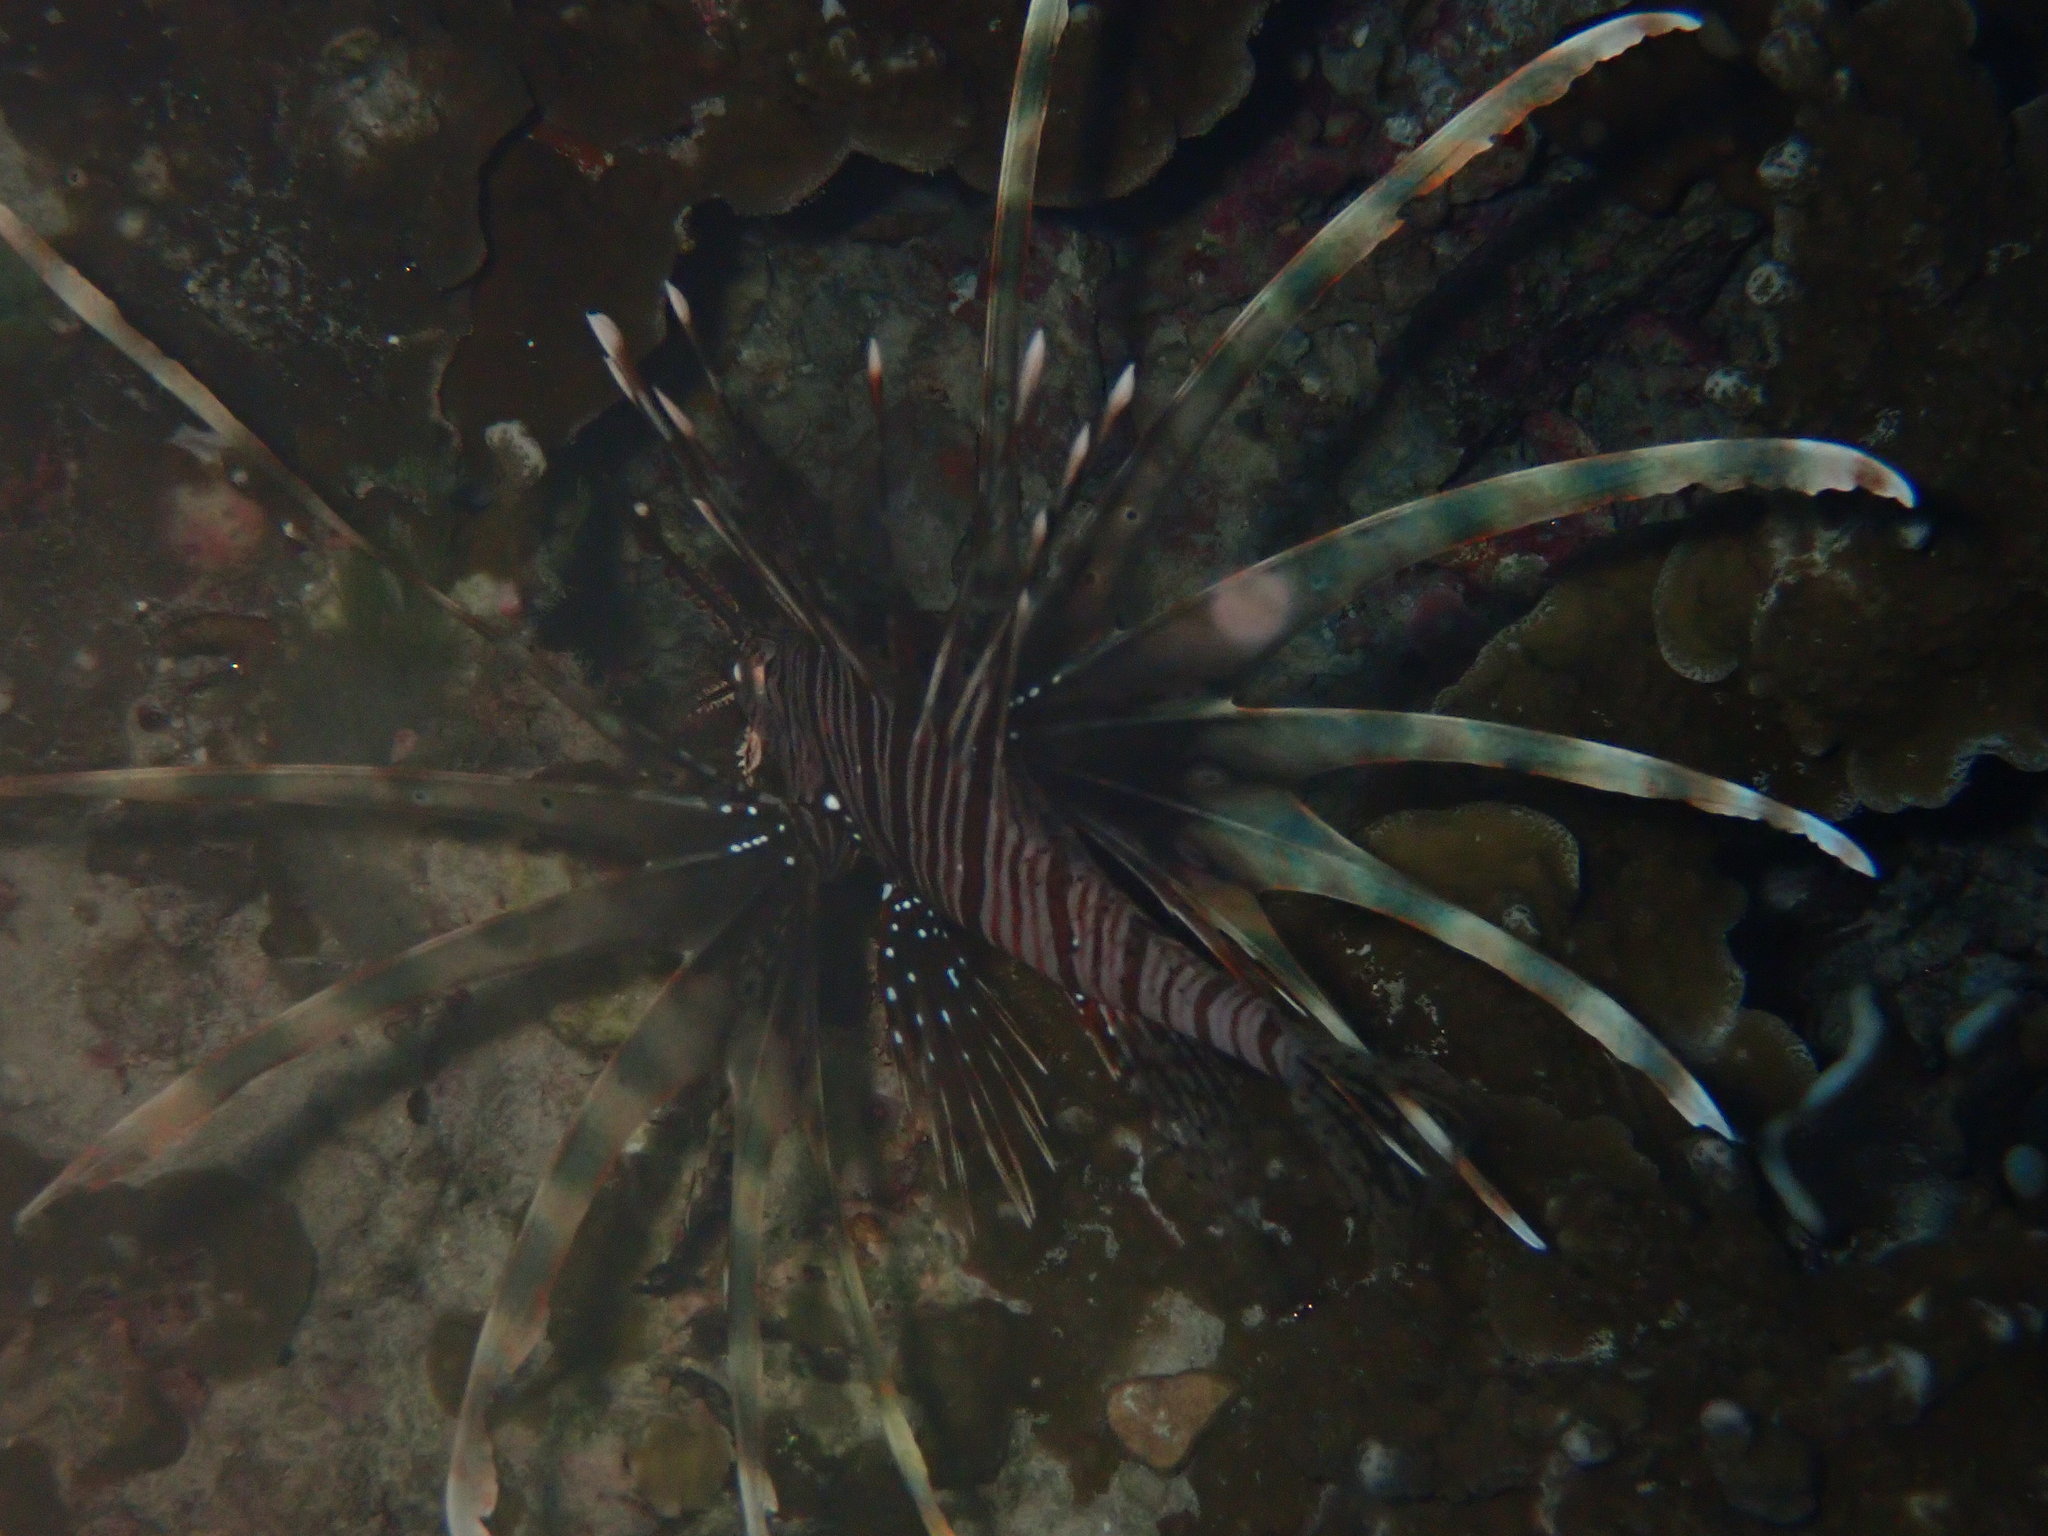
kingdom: Animalia
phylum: Chordata
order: Scorpaeniformes
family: Scorpaenidae
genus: Pterois
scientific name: Pterois miles
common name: Devil firefish
